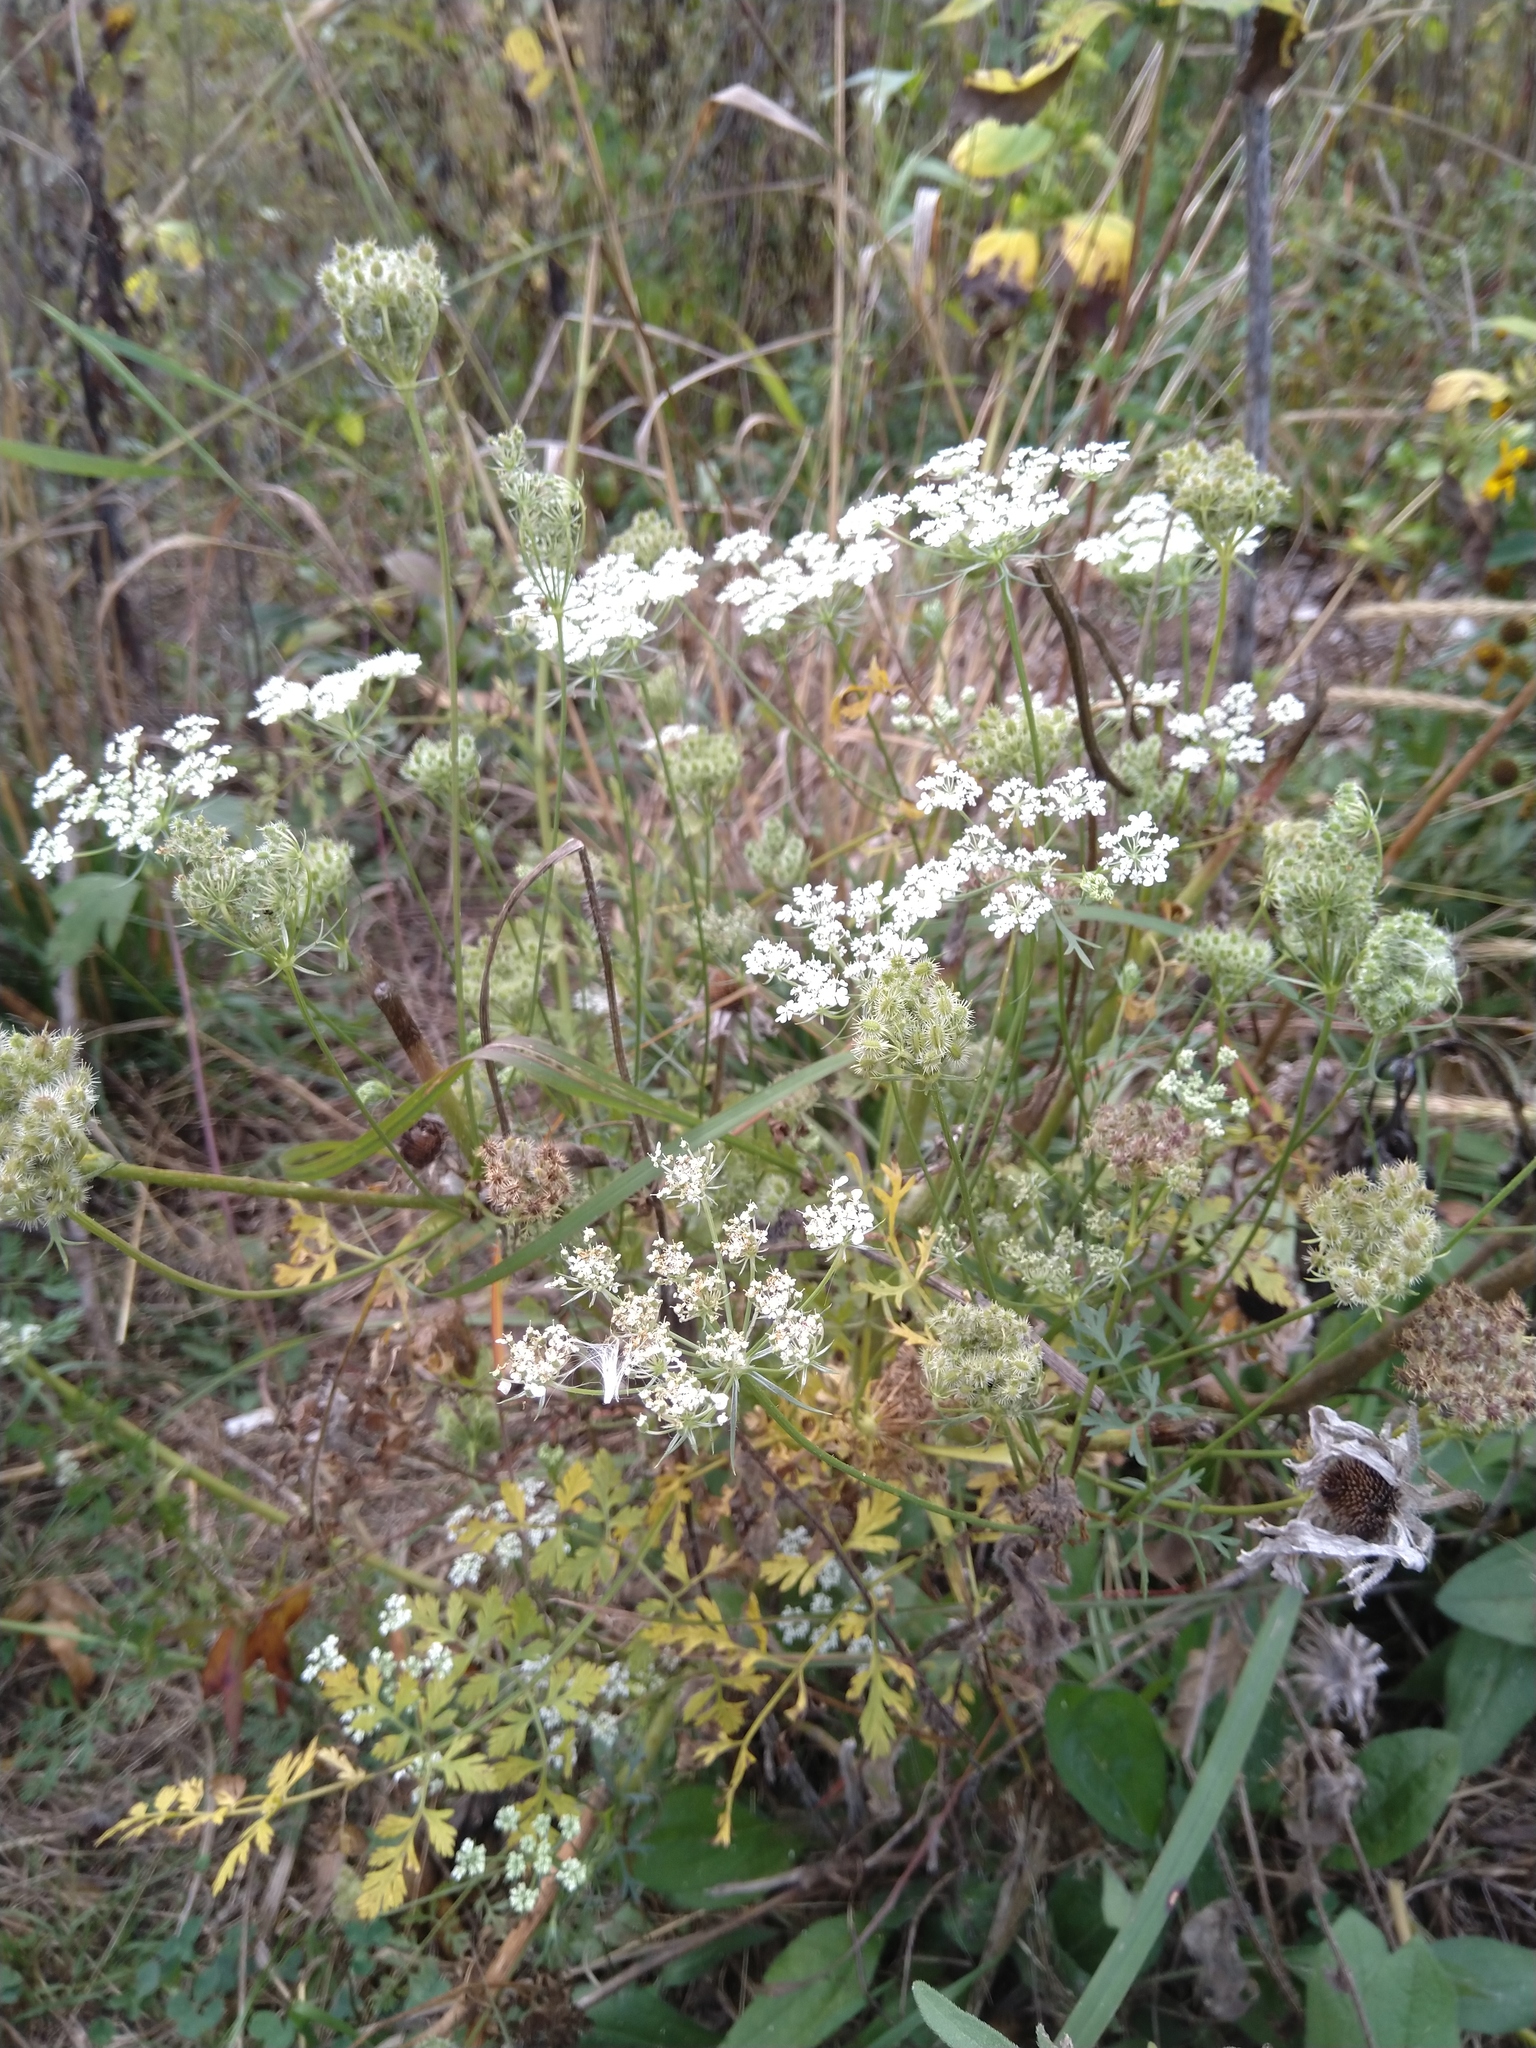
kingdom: Plantae
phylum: Tracheophyta
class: Magnoliopsida
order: Apiales
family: Apiaceae
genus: Daucus
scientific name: Daucus carota
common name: Wild carrot
